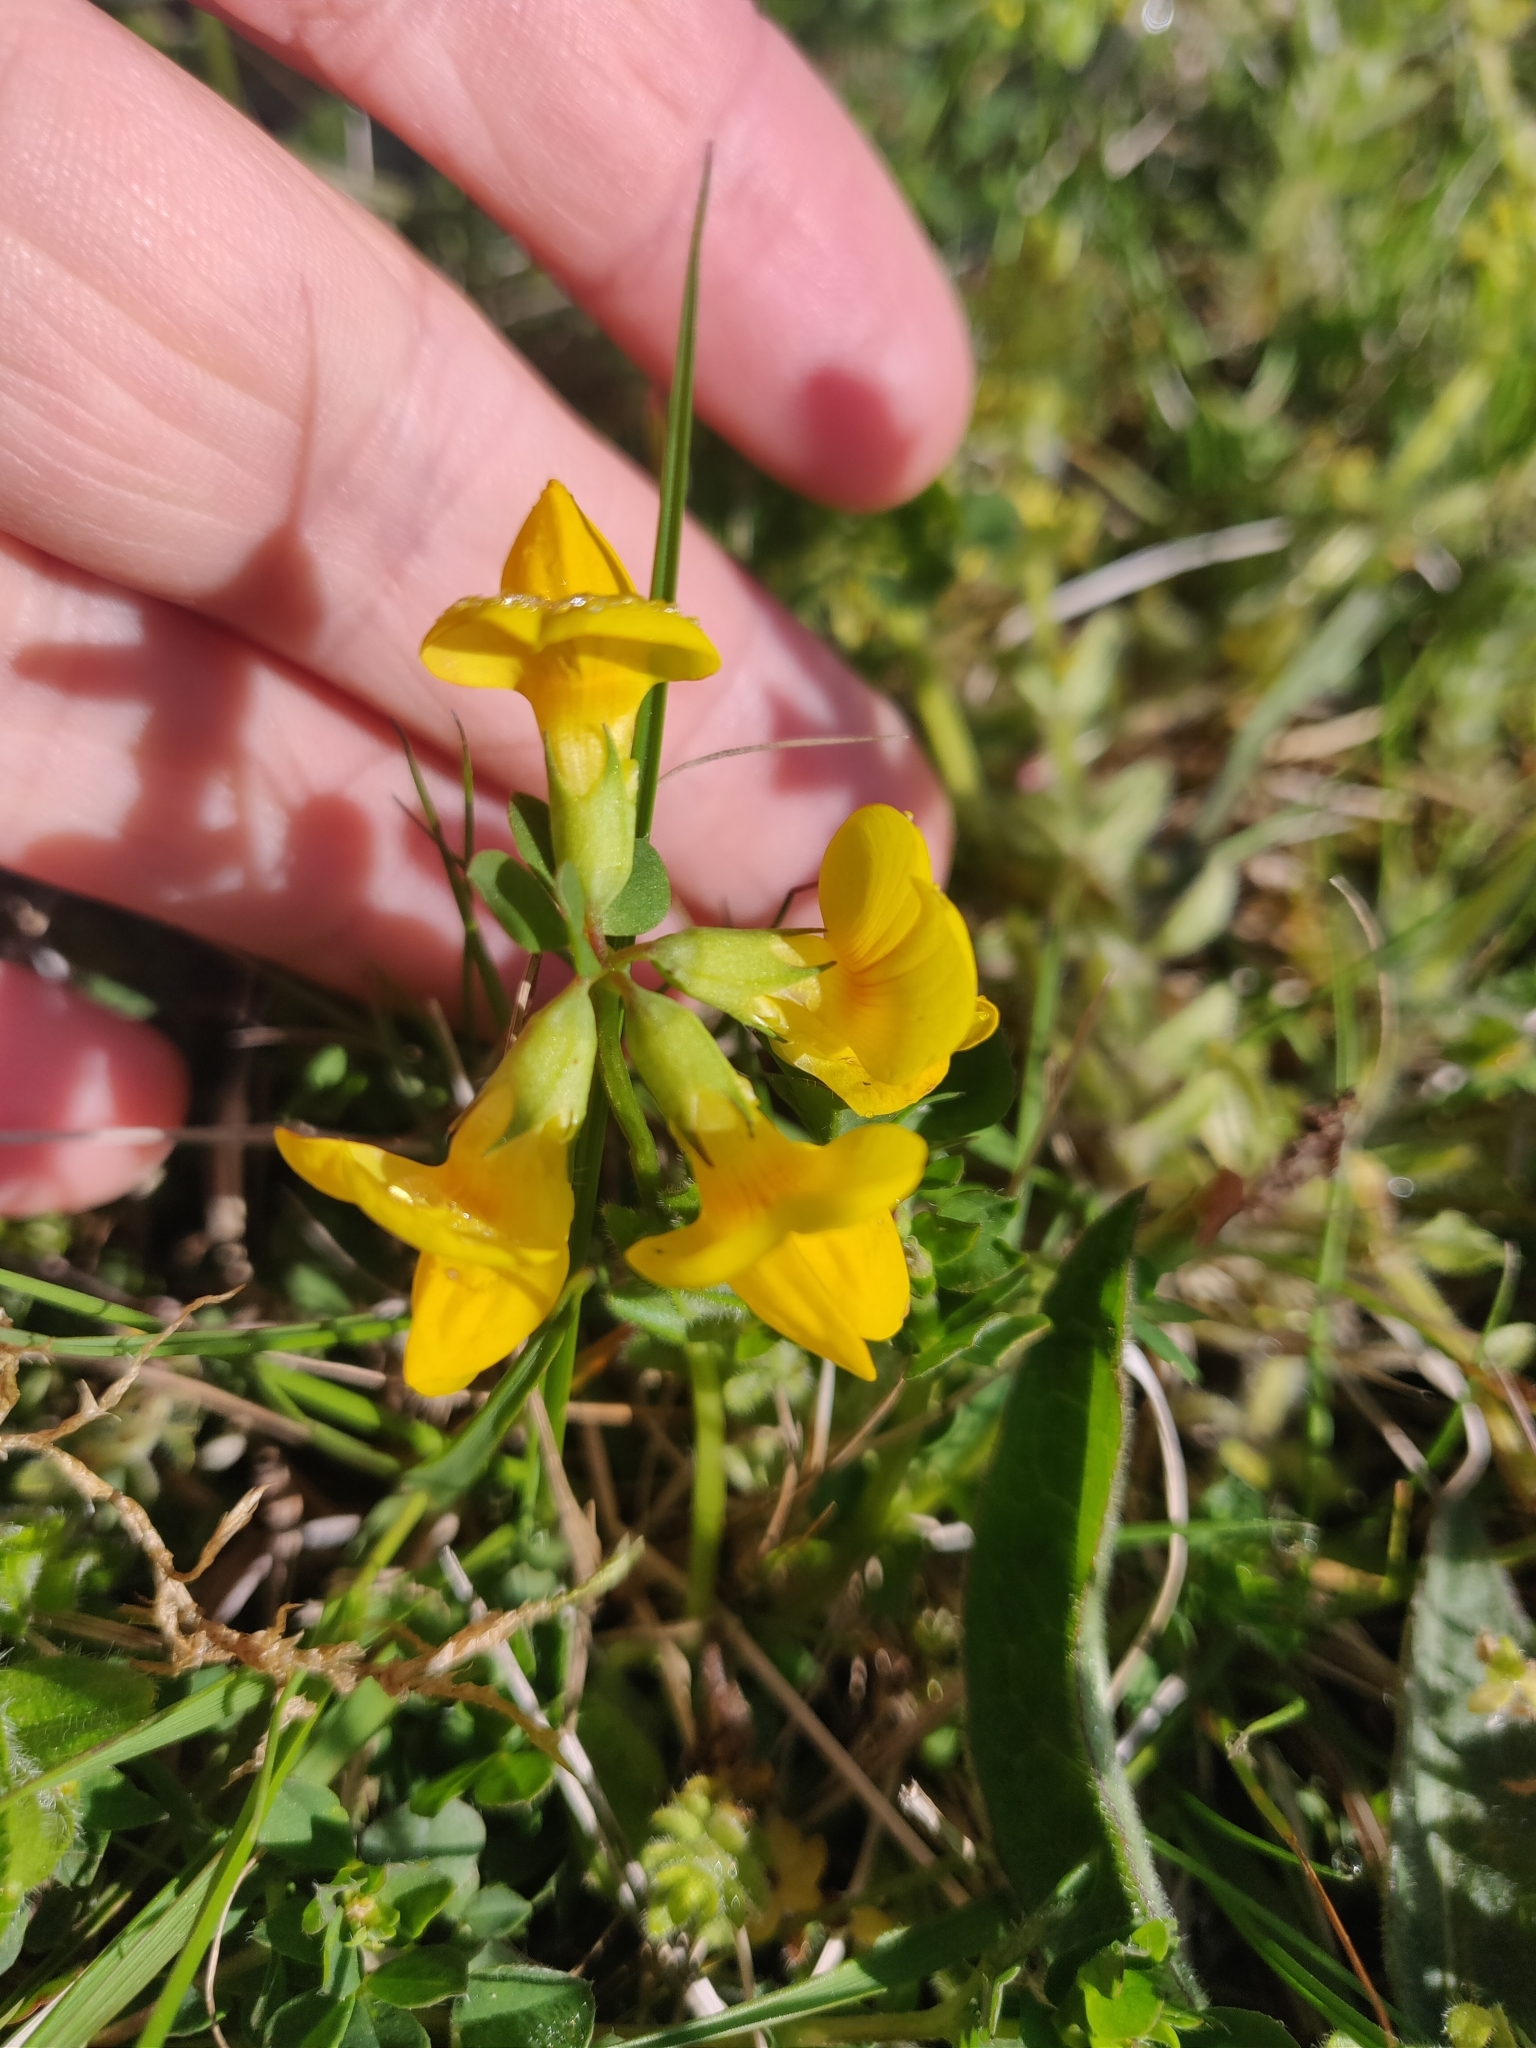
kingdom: Plantae
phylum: Tracheophyta
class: Magnoliopsida
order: Fabales
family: Fabaceae
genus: Lotus
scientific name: Lotus corniculatus
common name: Common bird's-foot-trefoil
